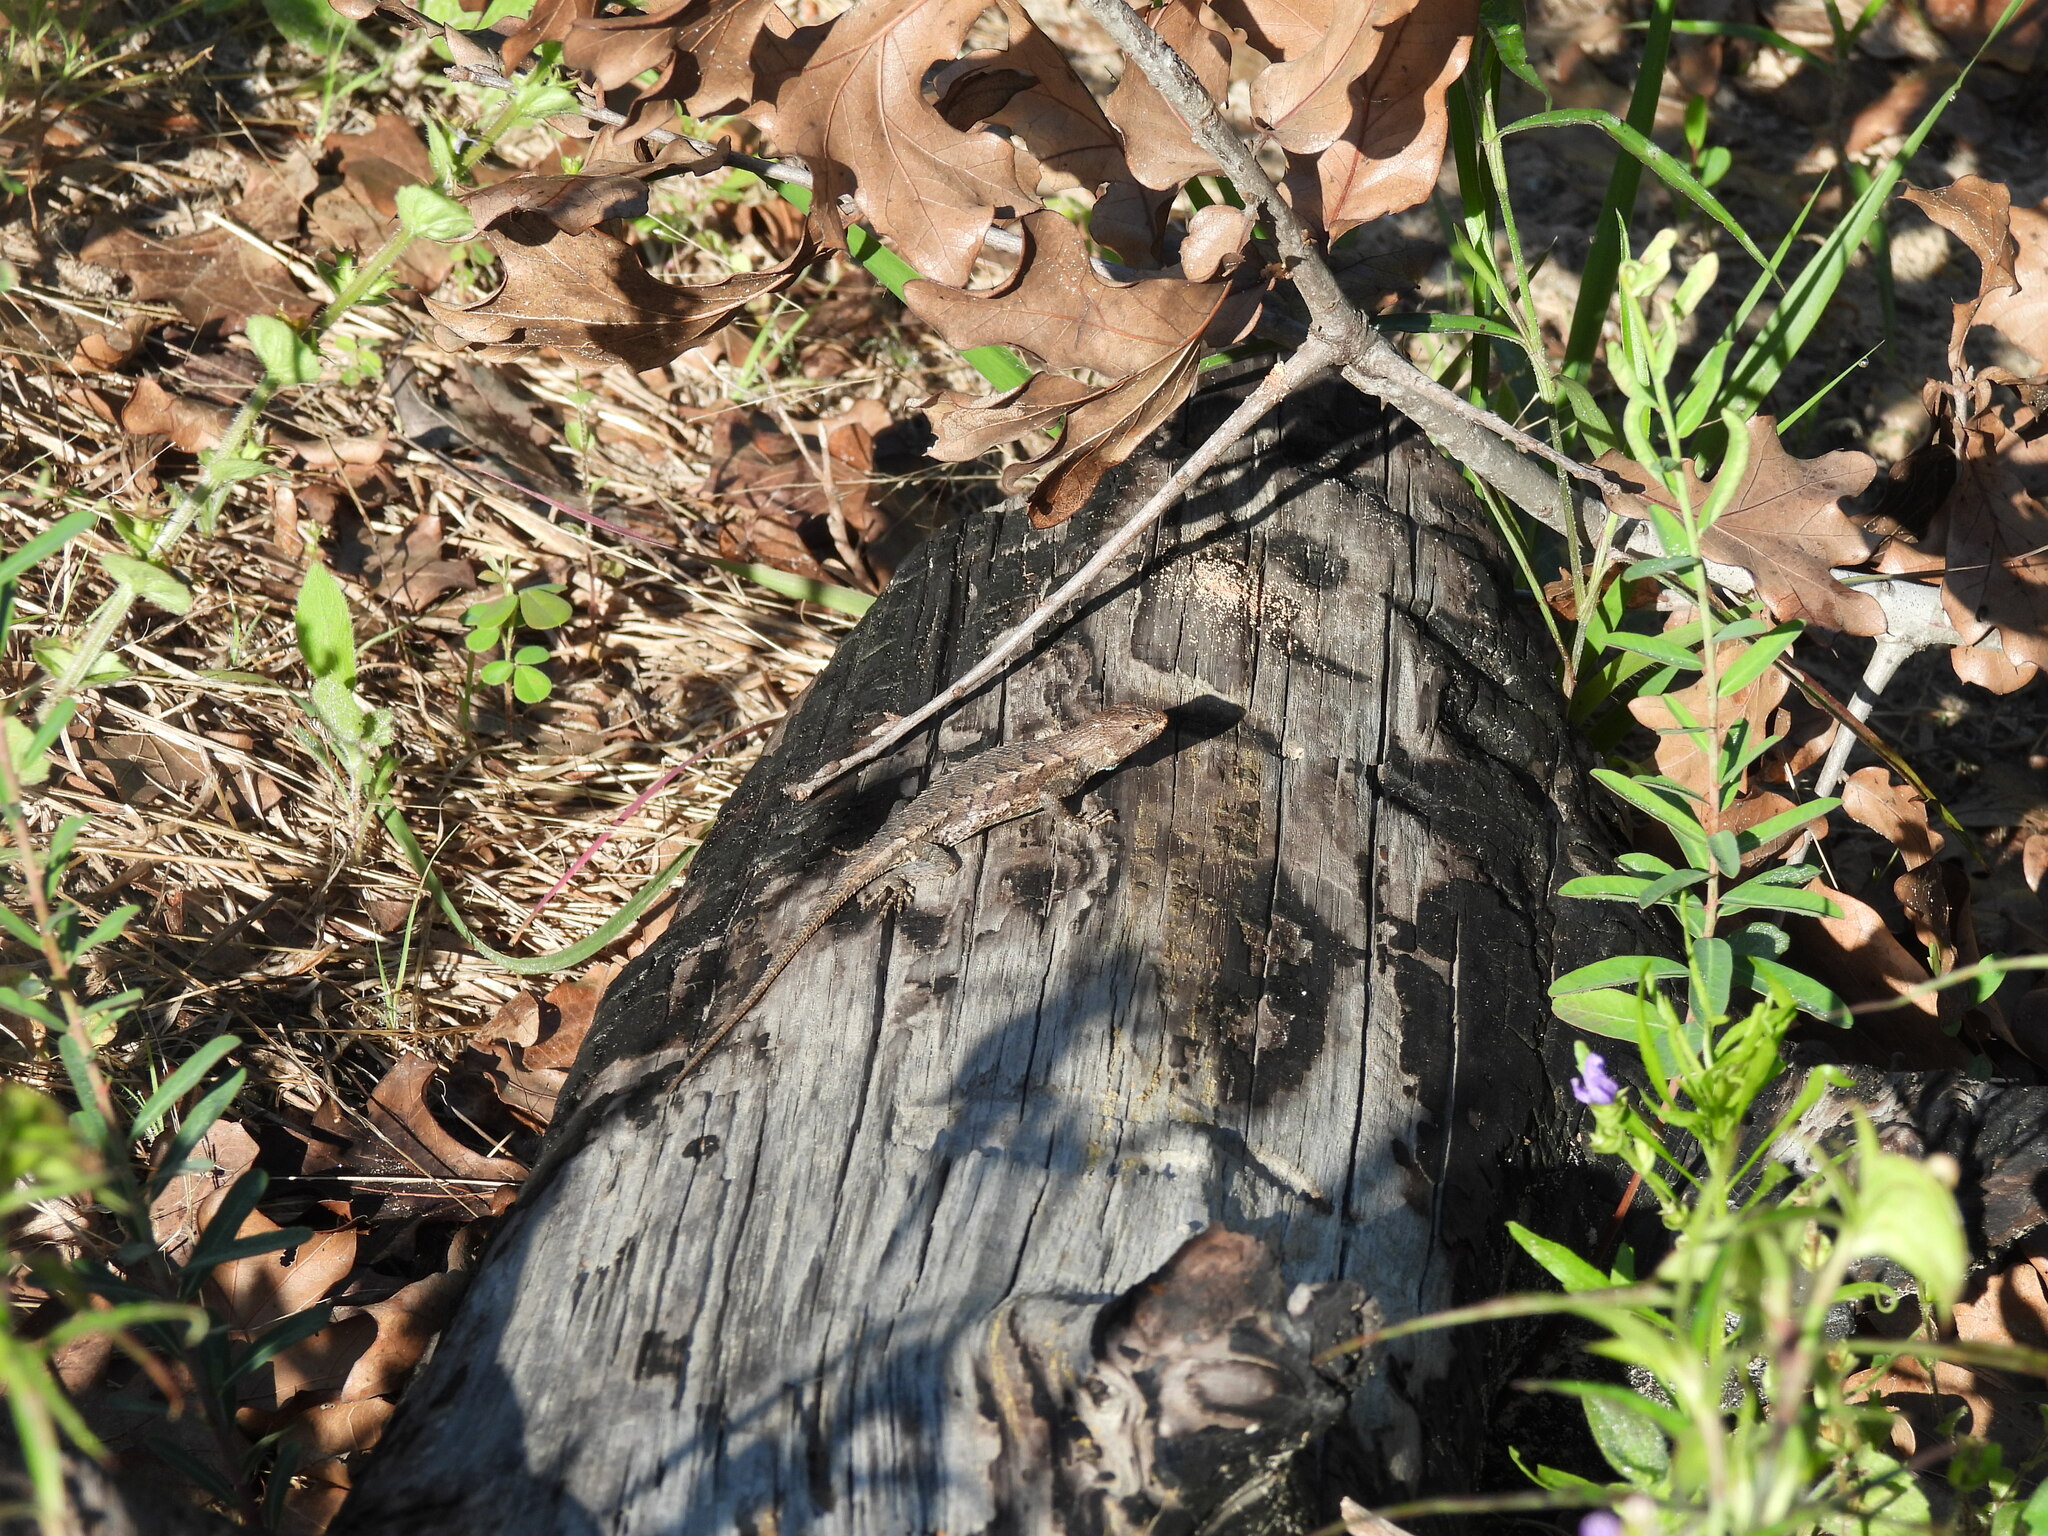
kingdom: Animalia
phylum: Chordata
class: Squamata
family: Phrynosomatidae
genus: Sceloporus
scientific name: Sceloporus consobrinus
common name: Southern prairie lizard
